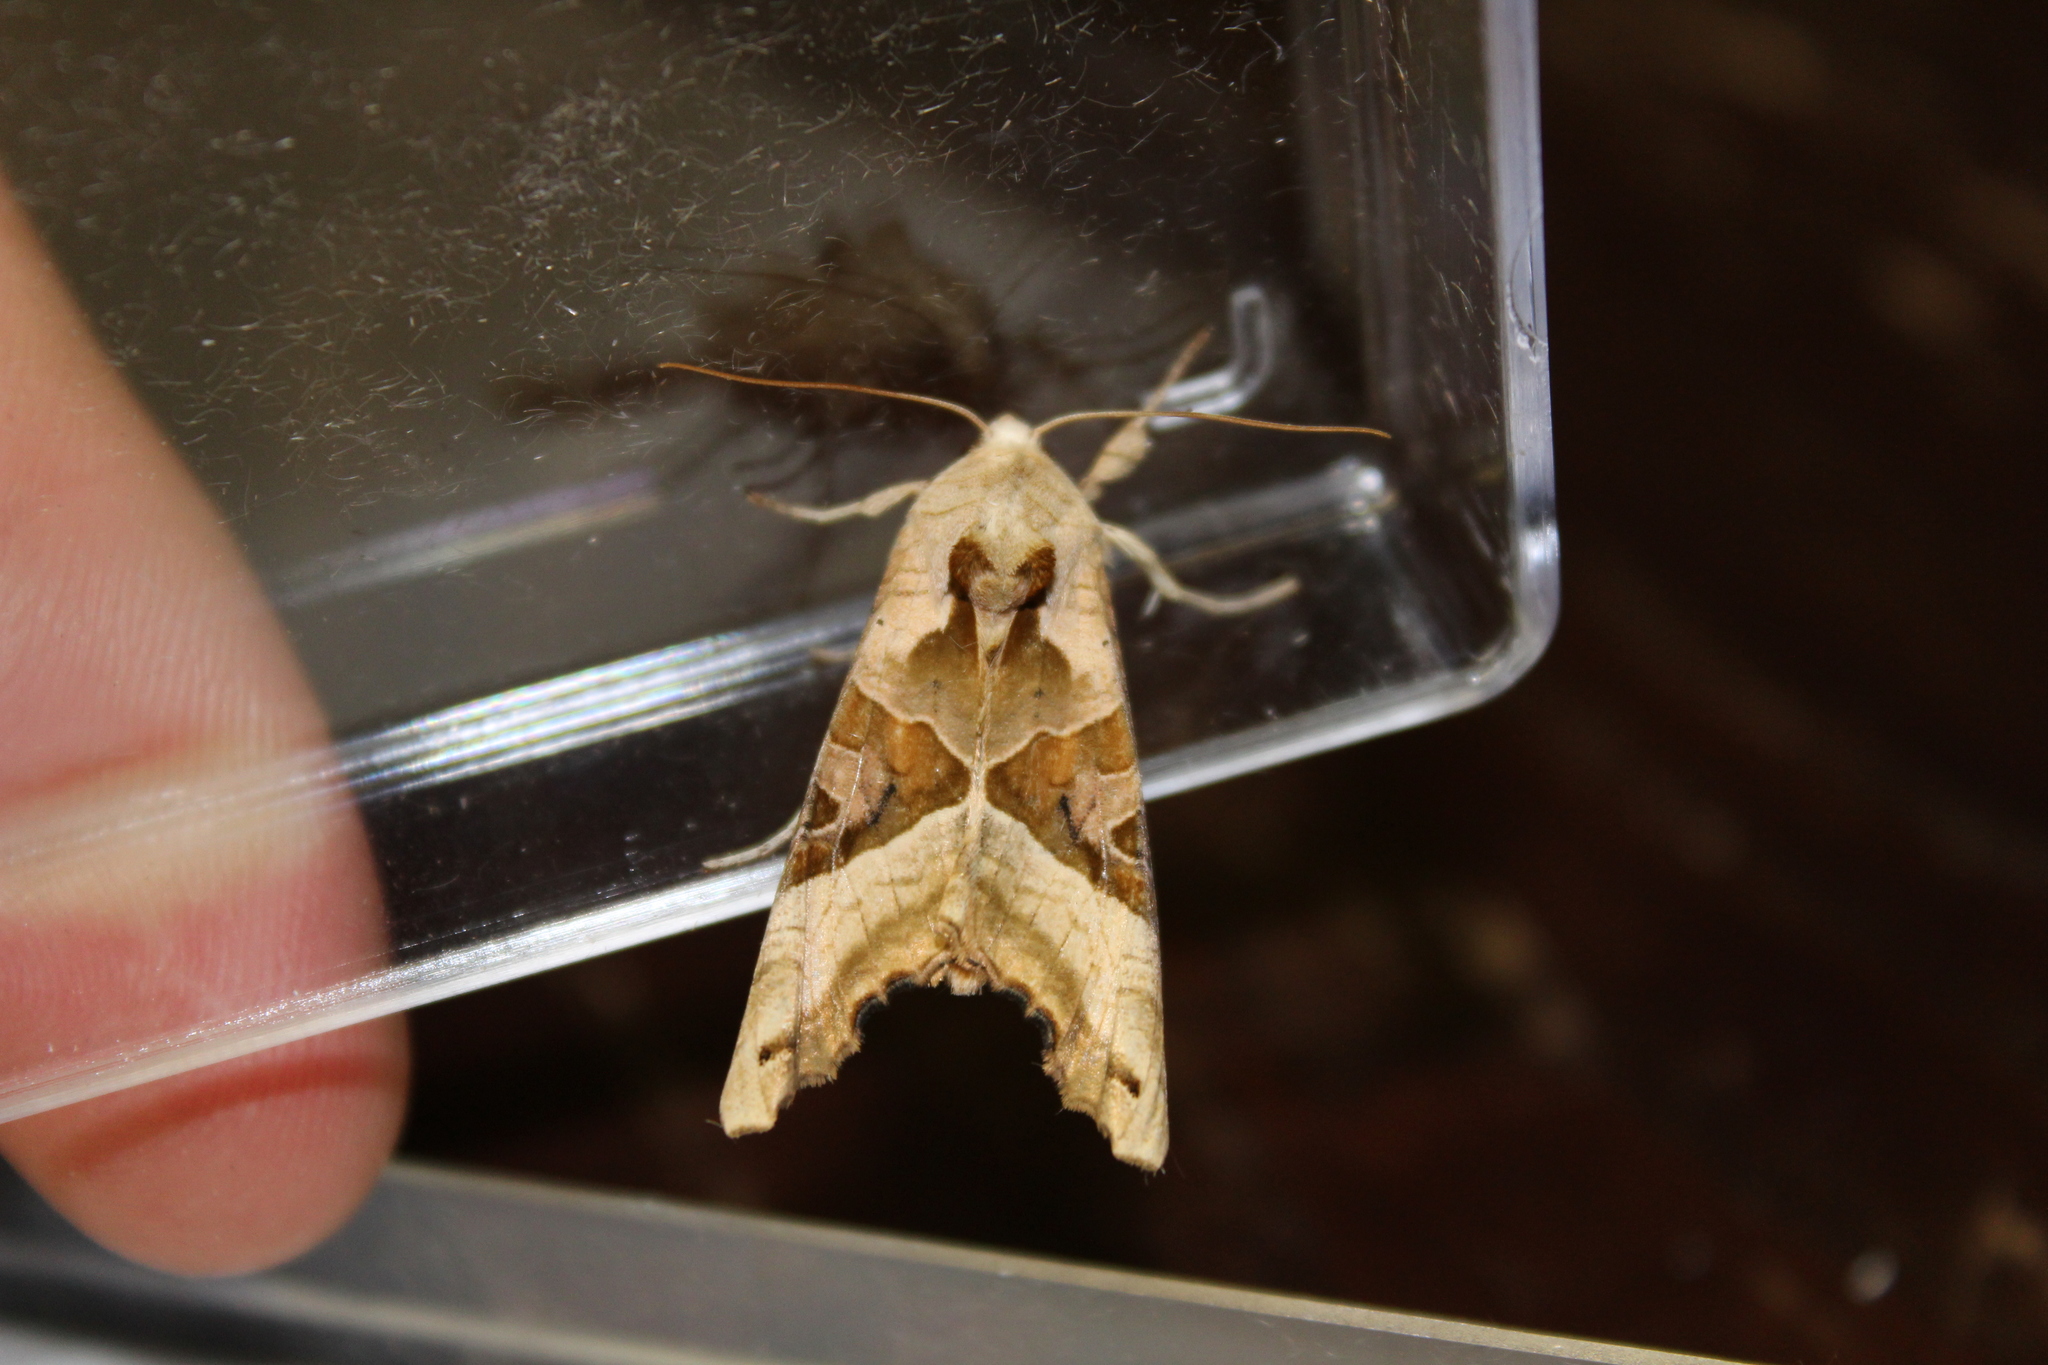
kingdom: Animalia
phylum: Arthropoda
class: Insecta
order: Lepidoptera
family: Noctuidae
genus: Phlogophora
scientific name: Phlogophora meticulosa
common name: Angle shades
